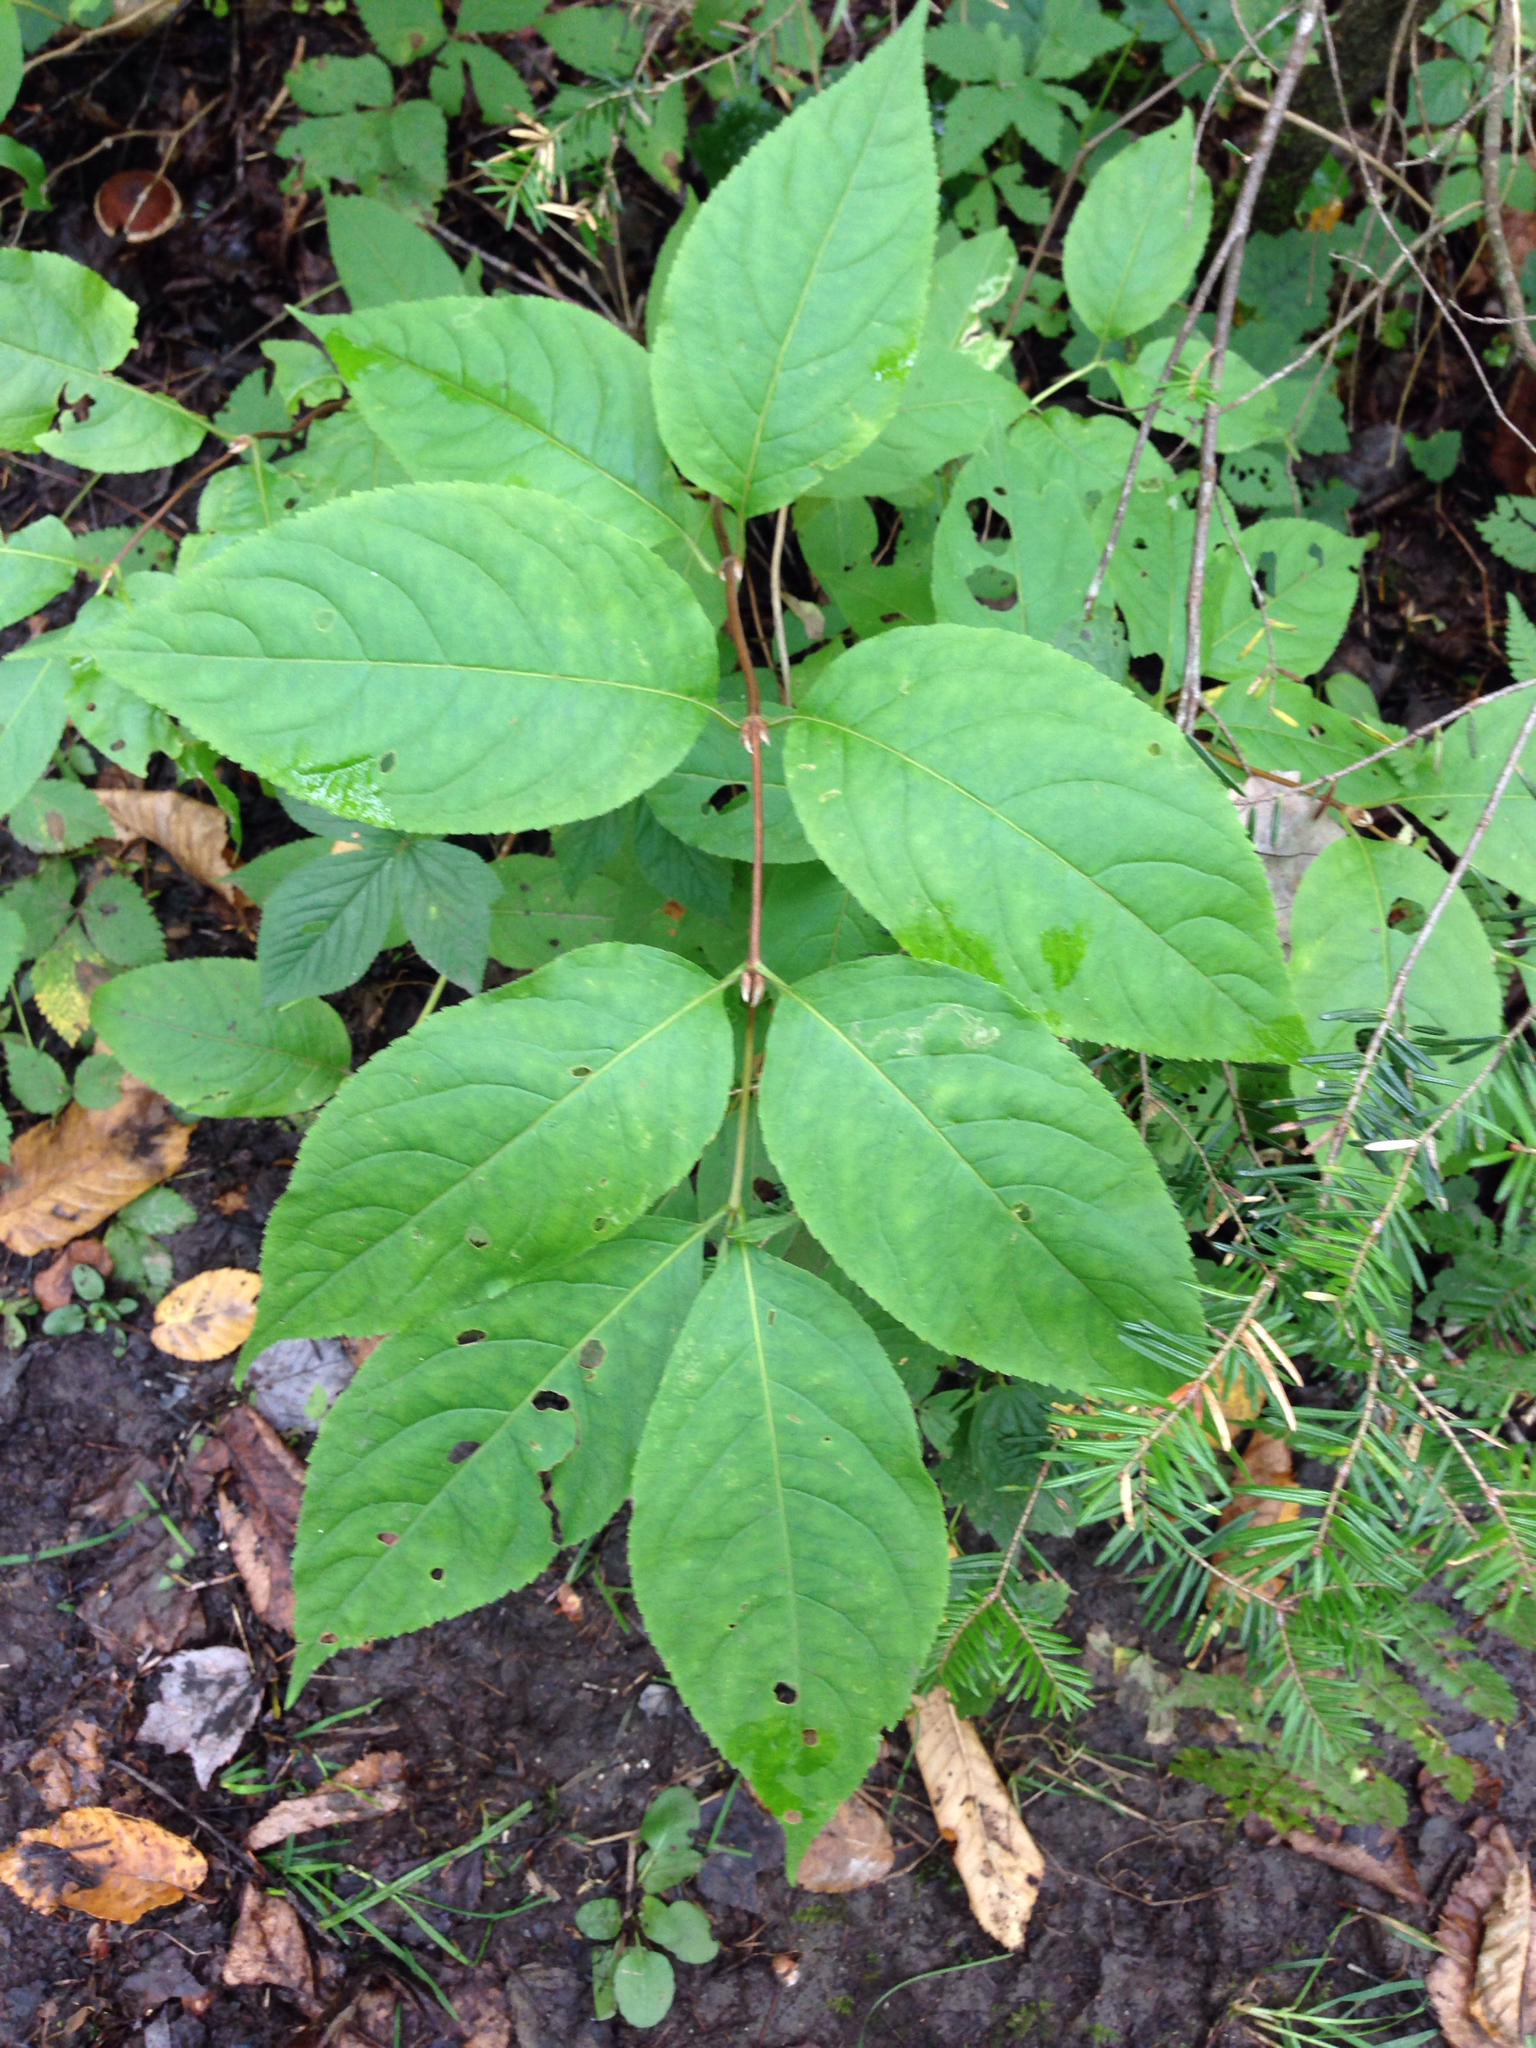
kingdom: Plantae
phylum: Tracheophyta
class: Magnoliopsida
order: Dipsacales
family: Caprifoliaceae
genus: Diervilla
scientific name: Diervilla lonicera
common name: Bush-honeysuckle
